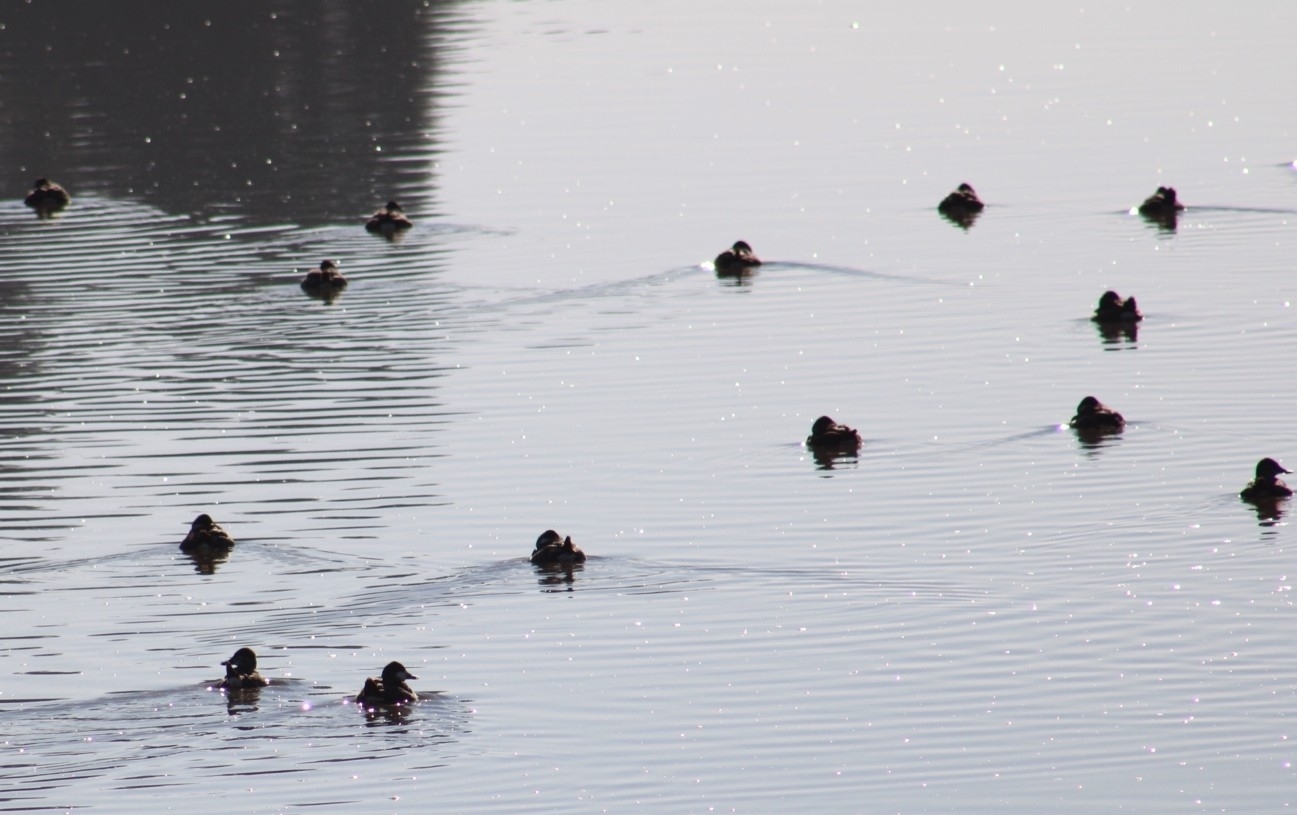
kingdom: Animalia
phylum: Chordata
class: Aves
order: Anseriformes
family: Anatidae
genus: Oxyura
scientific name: Oxyura jamaicensis
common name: Ruddy duck
